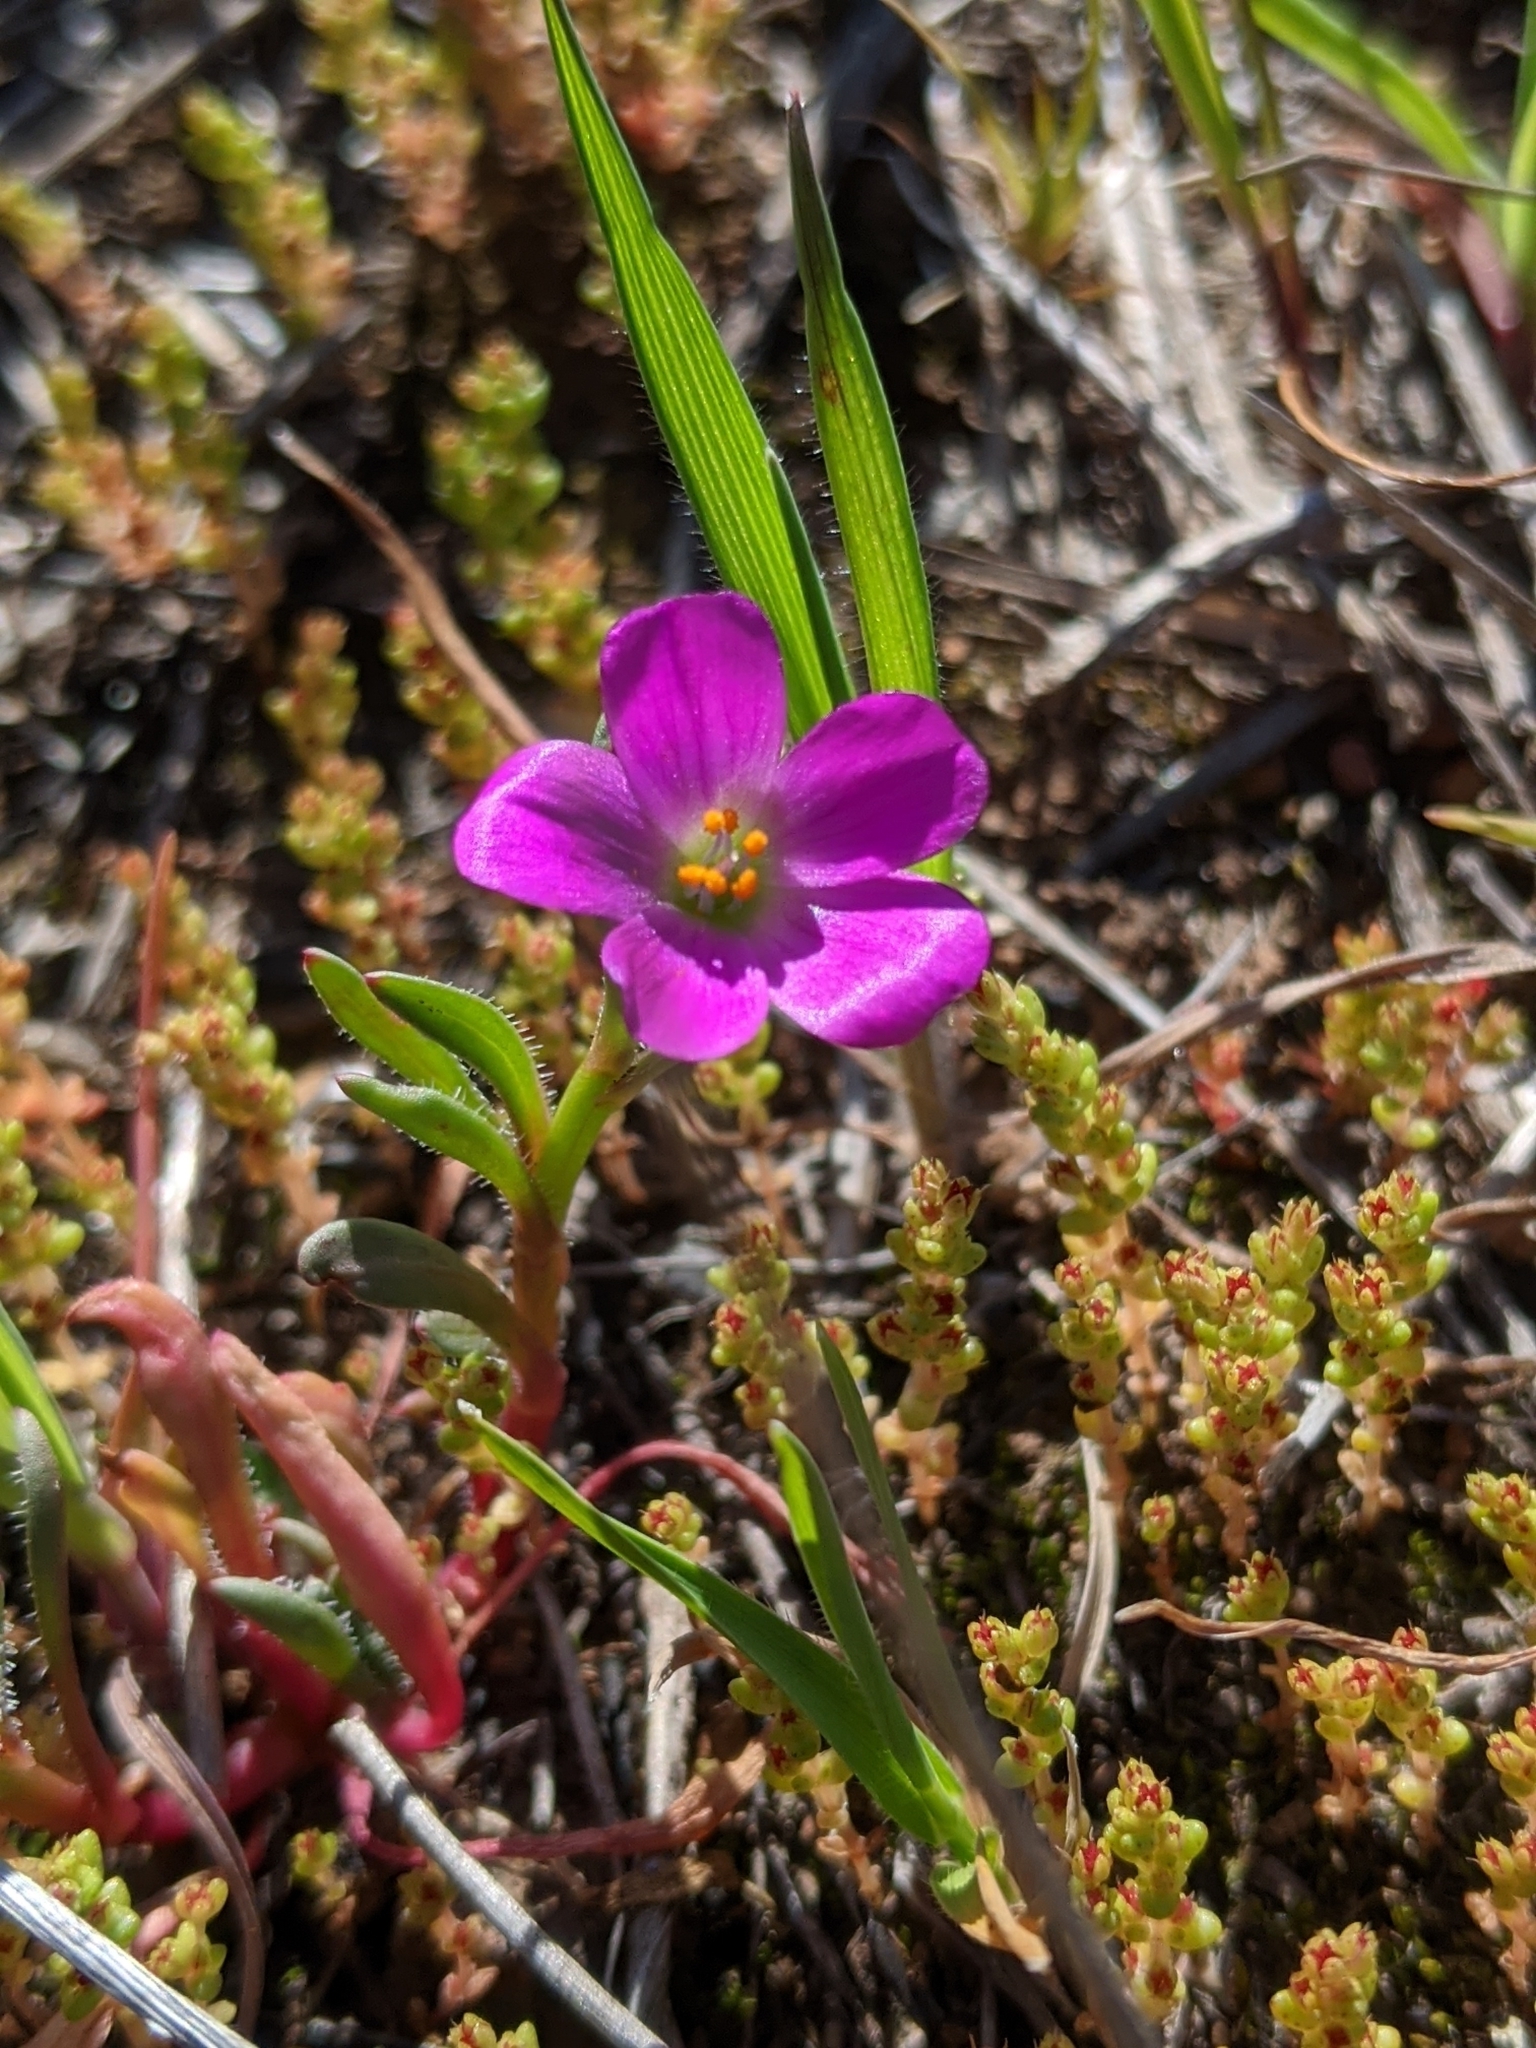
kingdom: Plantae
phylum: Tracheophyta
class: Magnoliopsida
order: Caryophyllales
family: Montiaceae
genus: Calandrinia
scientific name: Calandrinia menziesii
